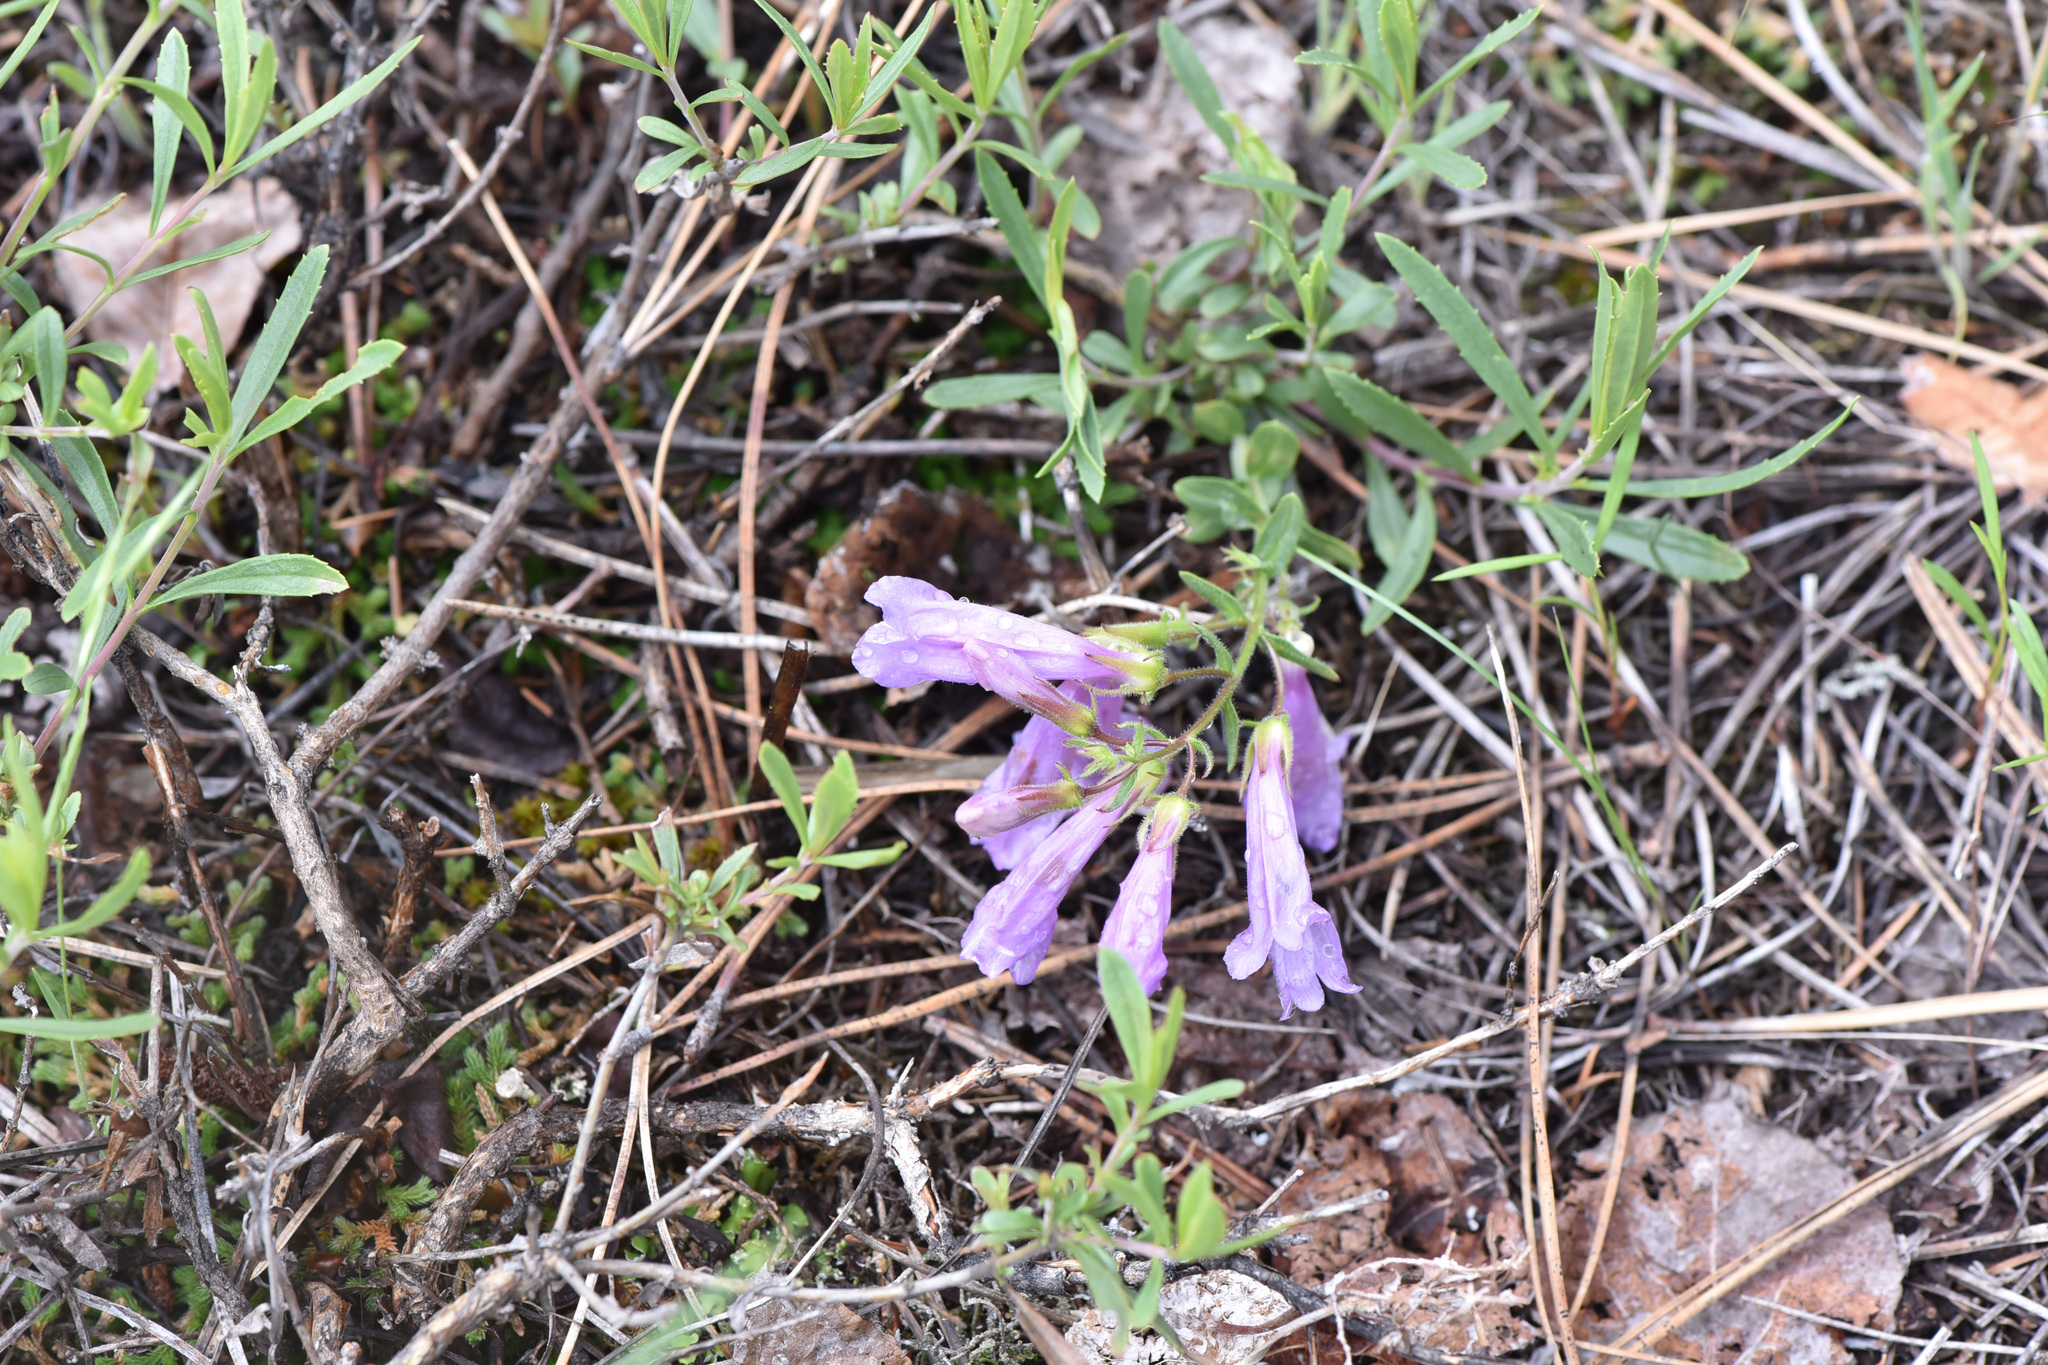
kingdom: Plantae
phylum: Tracheophyta
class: Magnoliopsida
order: Lamiales
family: Plantaginaceae
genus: Penstemon
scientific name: Penstemon fruticosus
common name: Bush penstemon
